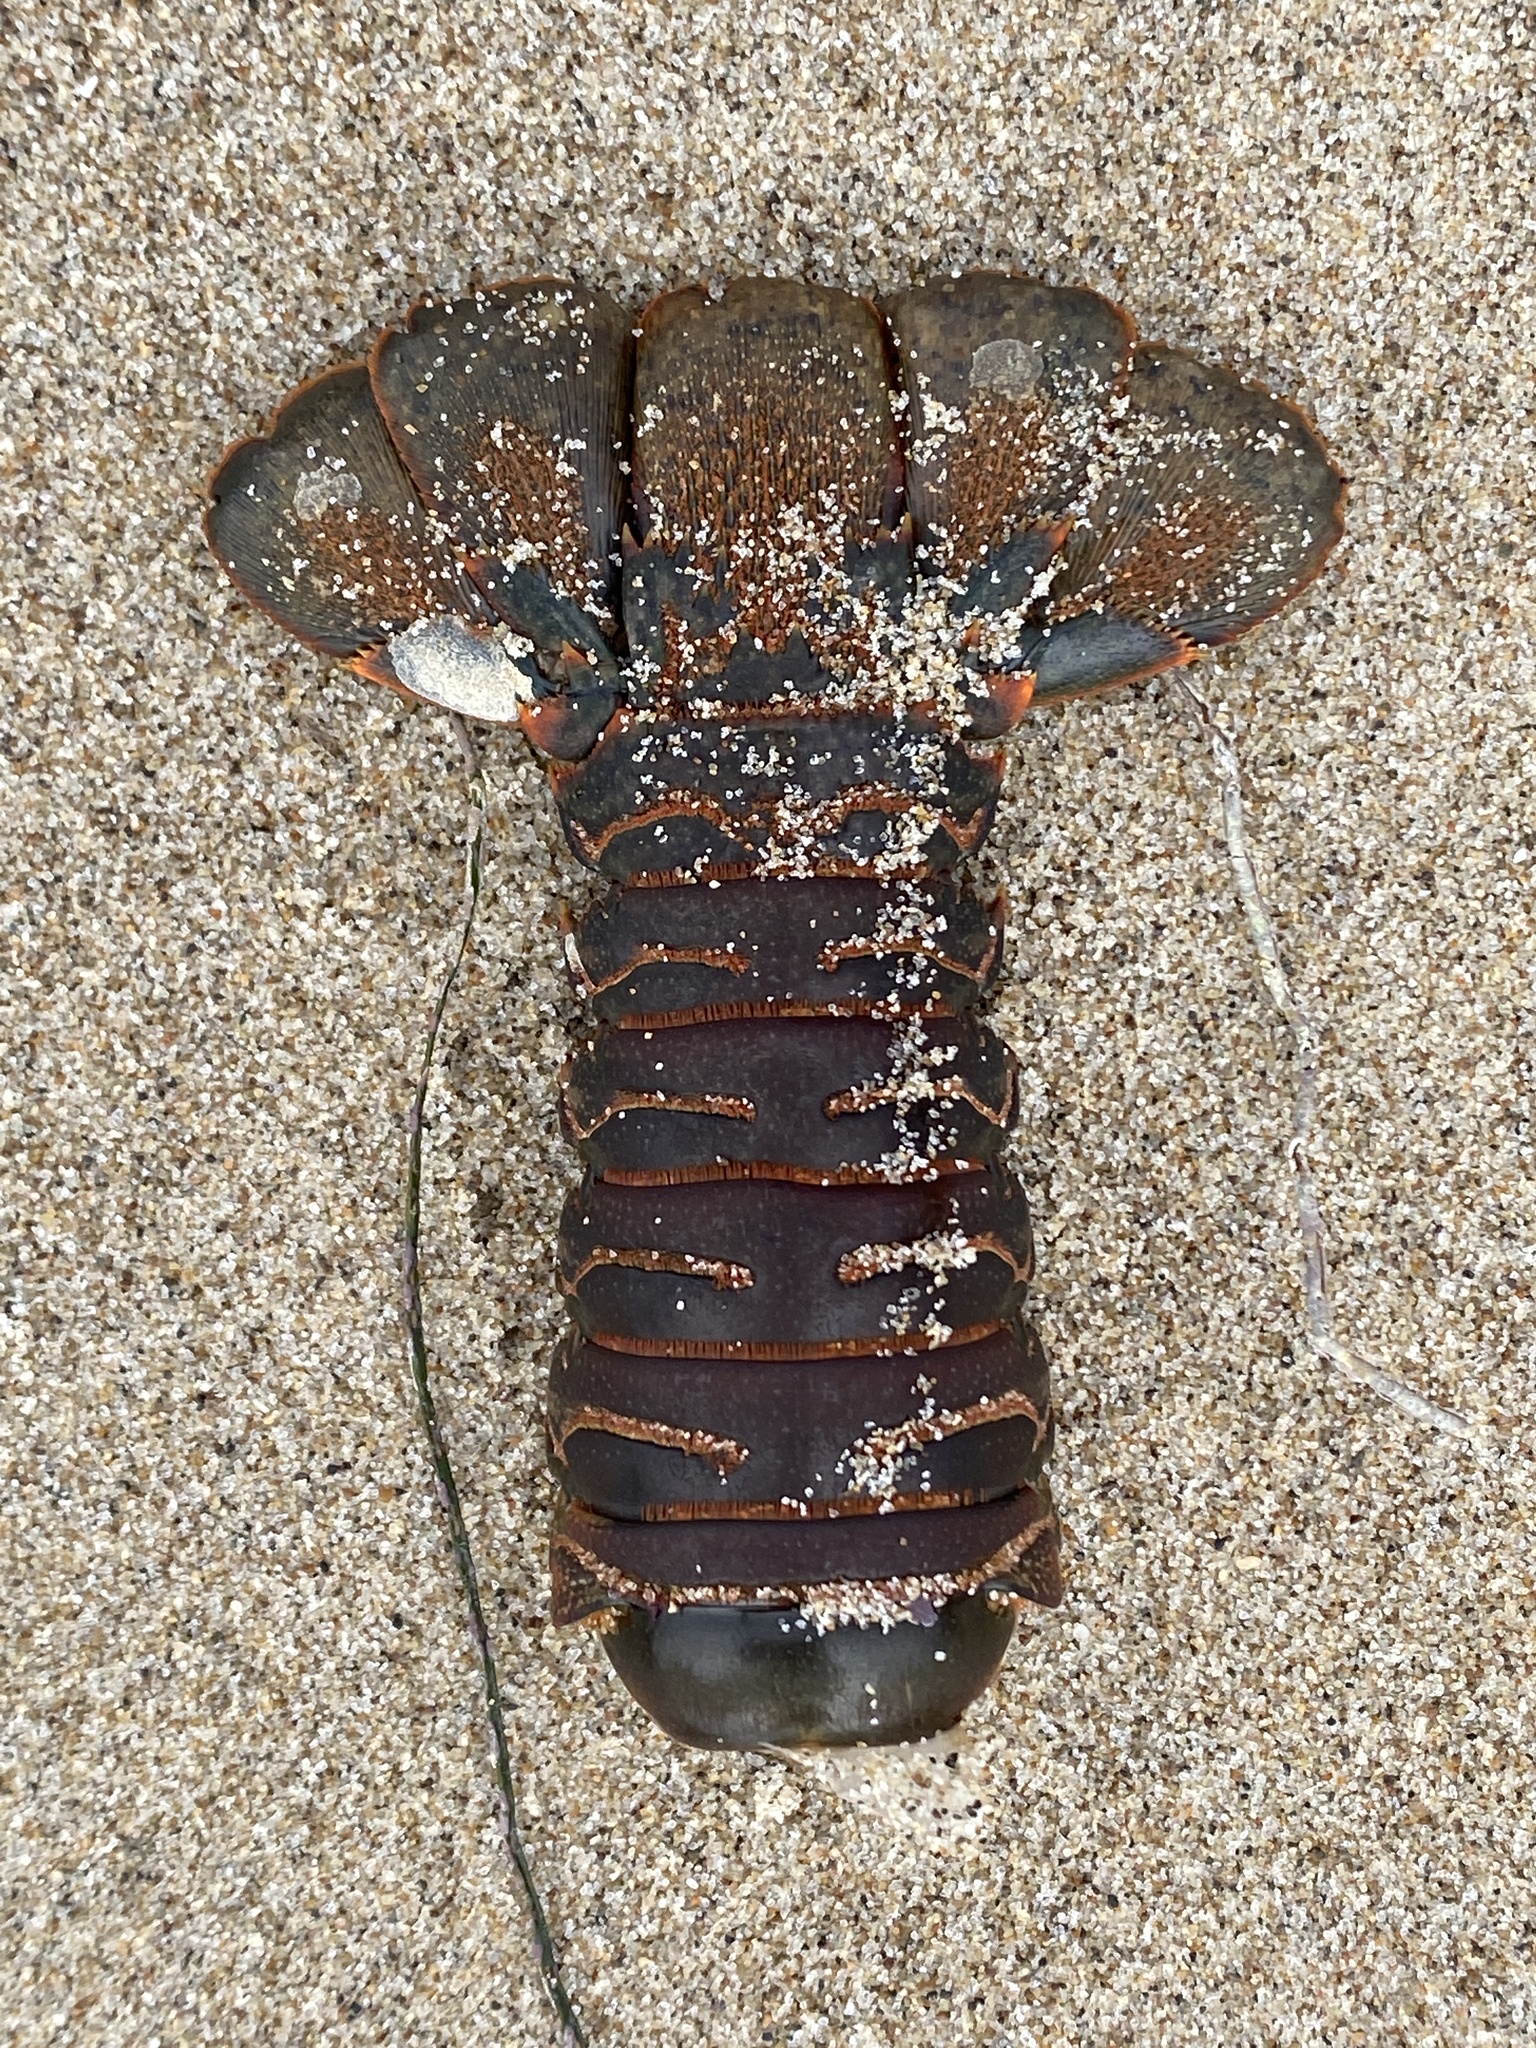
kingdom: Animalia
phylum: Arthropoda
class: Malacostraca
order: Decapoda
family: Palinuridae
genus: Panulirus
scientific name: Panulirus interruptus
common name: California spiny lobster
